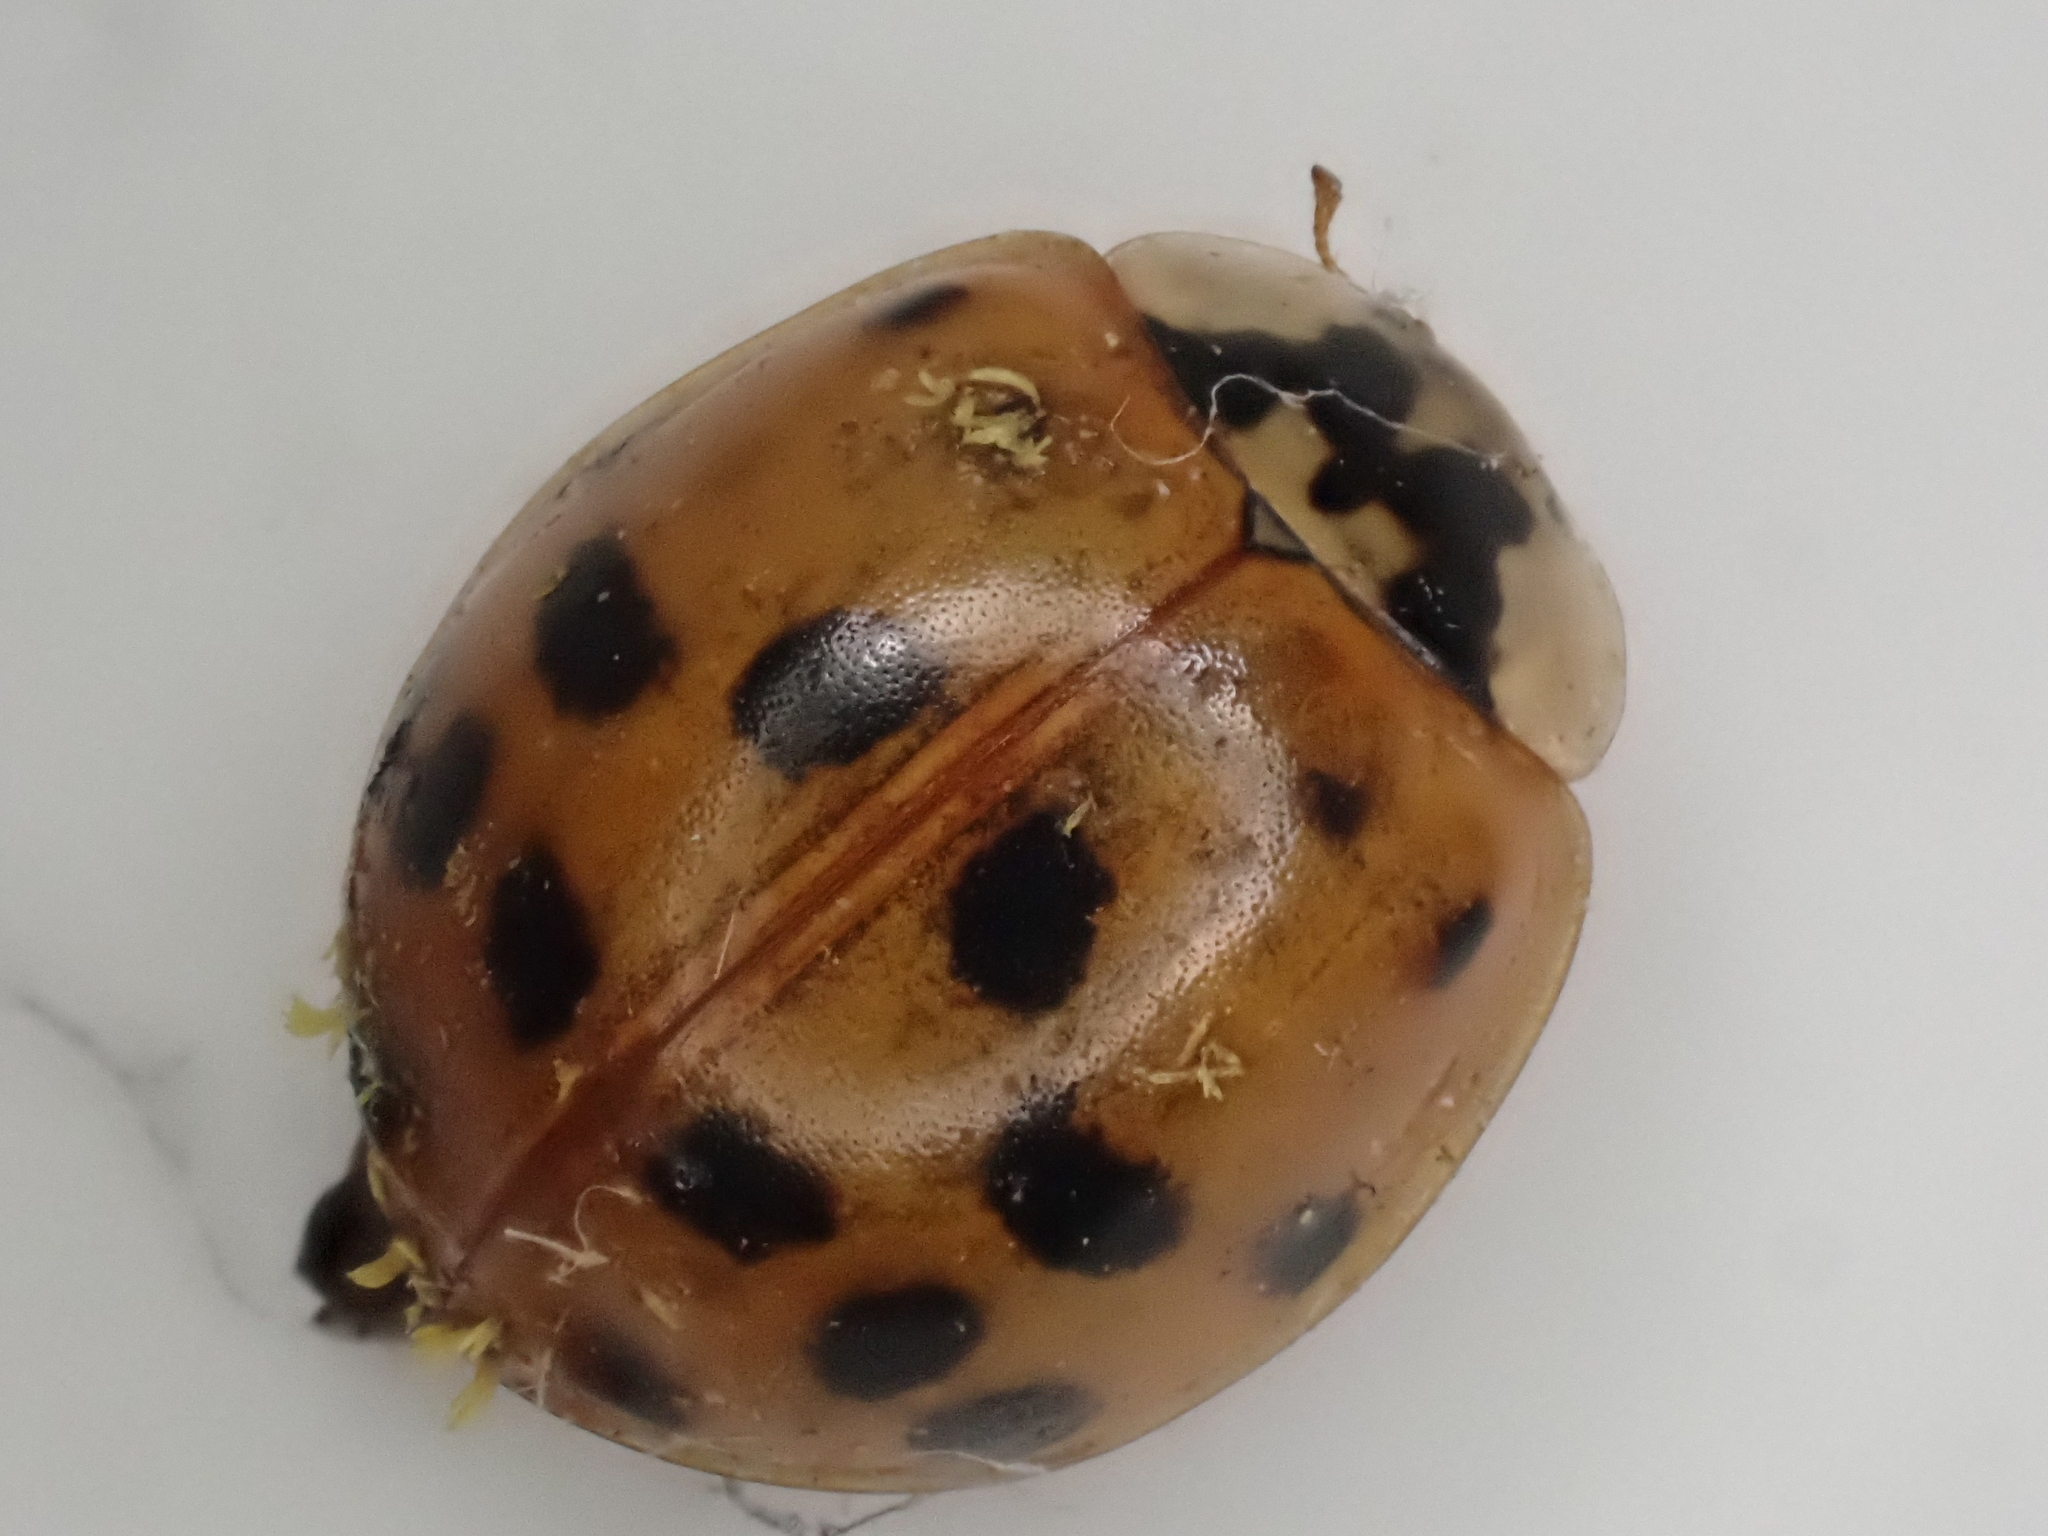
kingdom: Animalia
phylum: Arthropoda
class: Insecta
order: Coleoptera
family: Coccinellidae
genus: Harmonia
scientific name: Harmonia axyridis
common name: Harlequin ladybird
